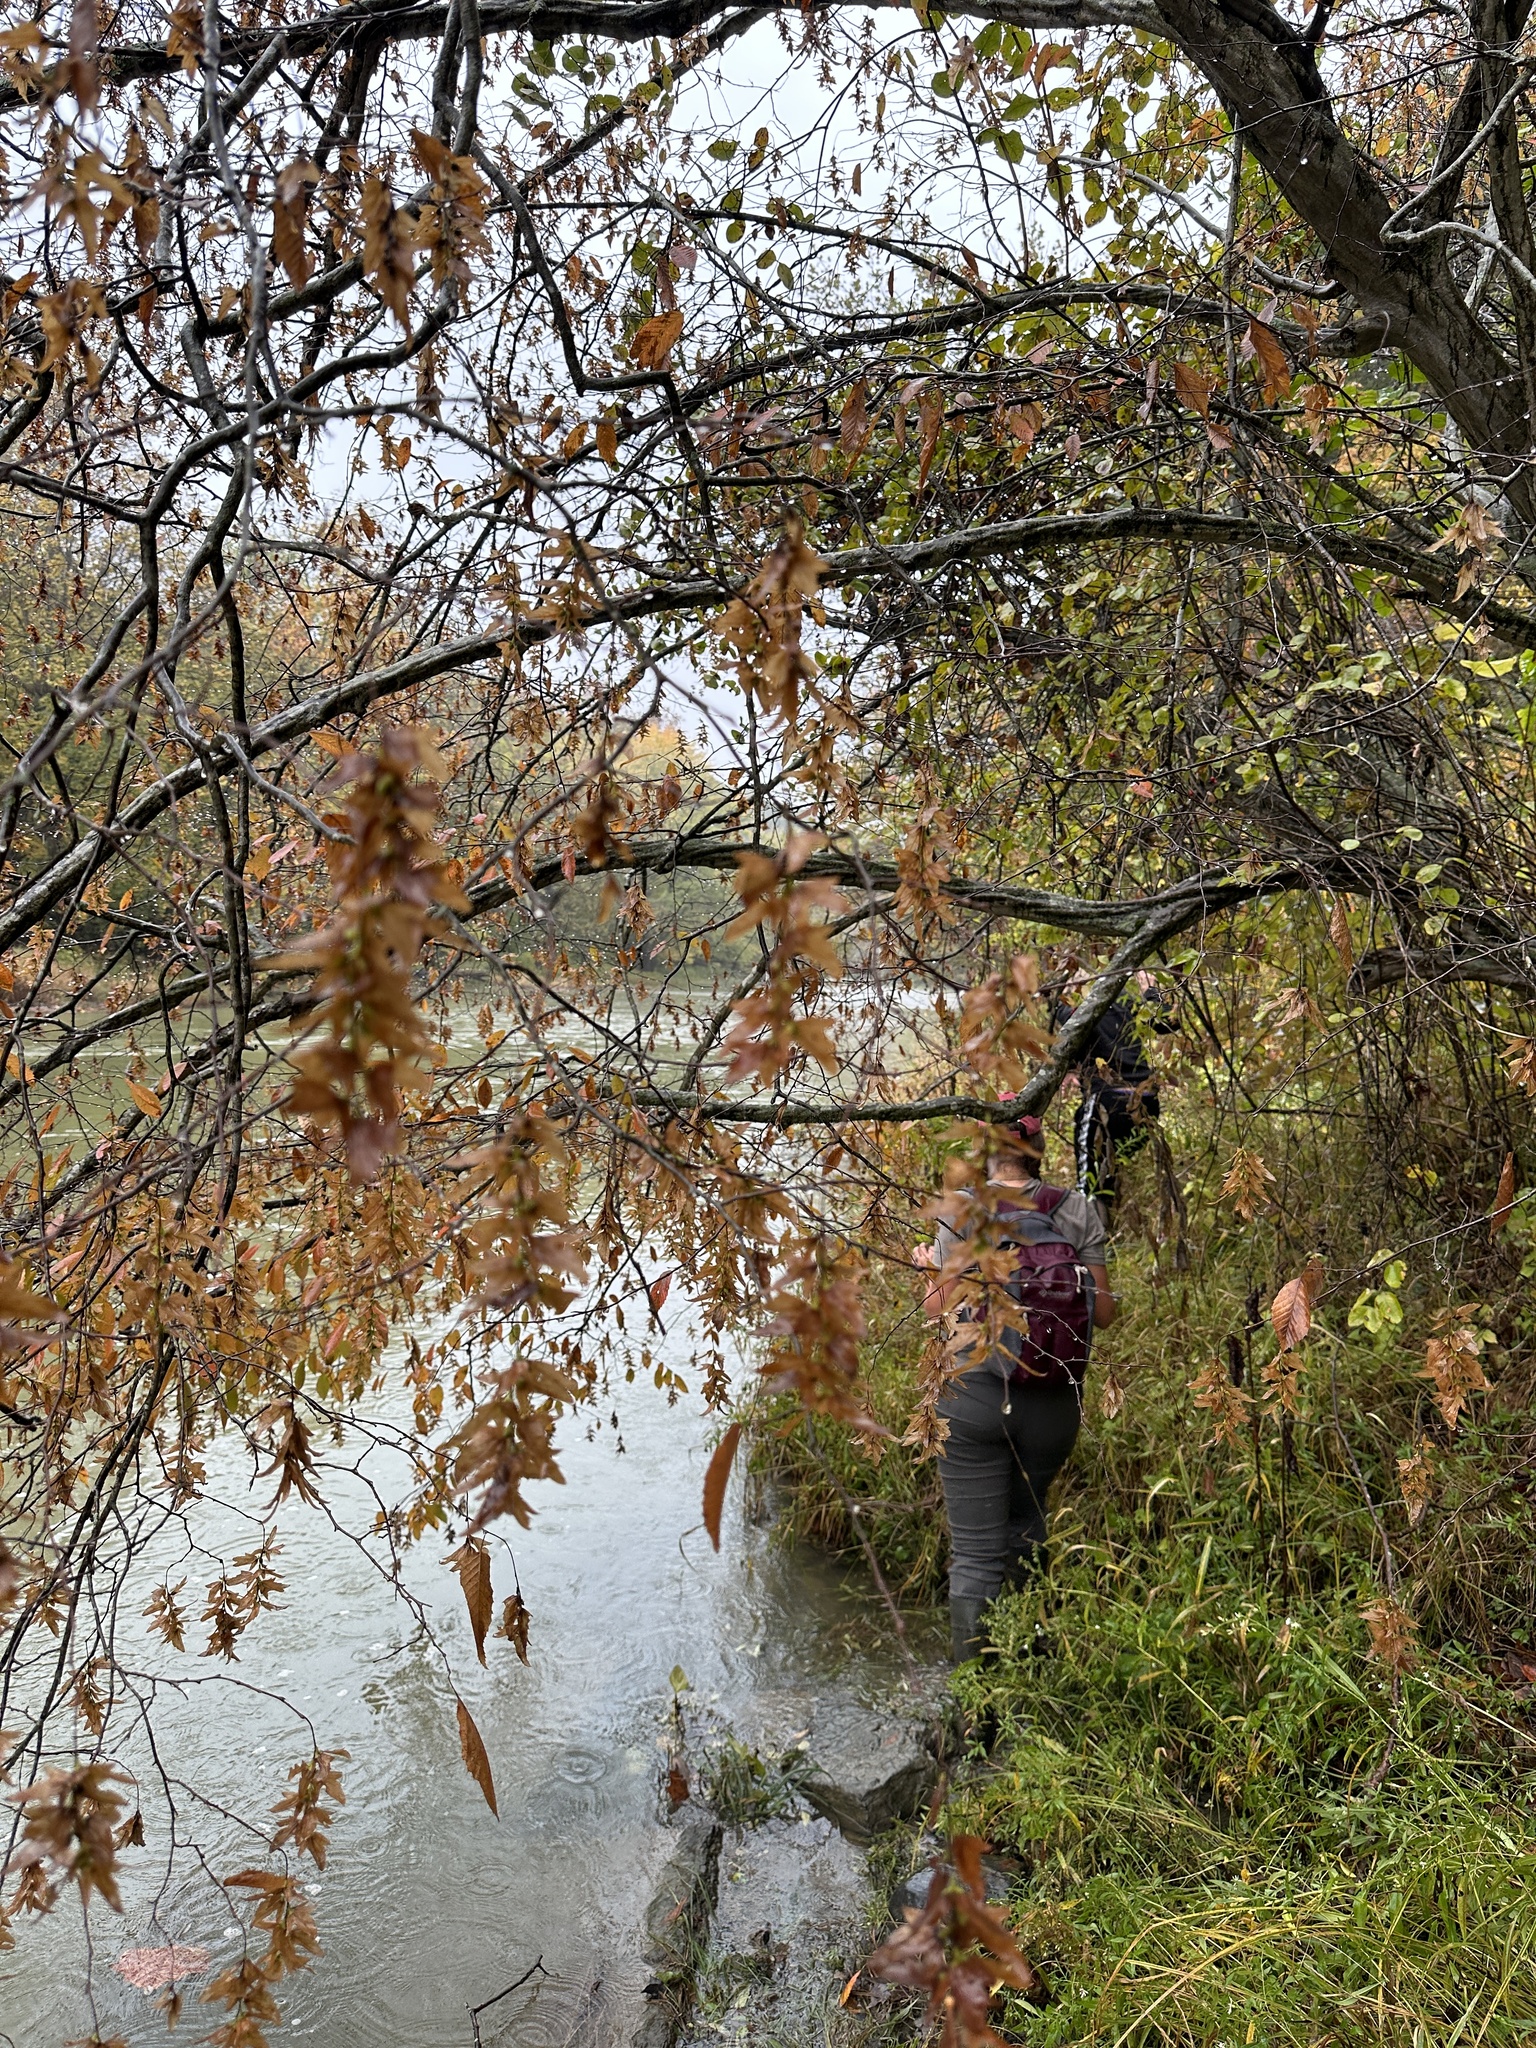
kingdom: Plantae
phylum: Tracheophyta
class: Magnoliopsida
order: Fagales
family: Betulaceae
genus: Carpinus
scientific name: Carpinus caroliniana
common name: American hornbeam
